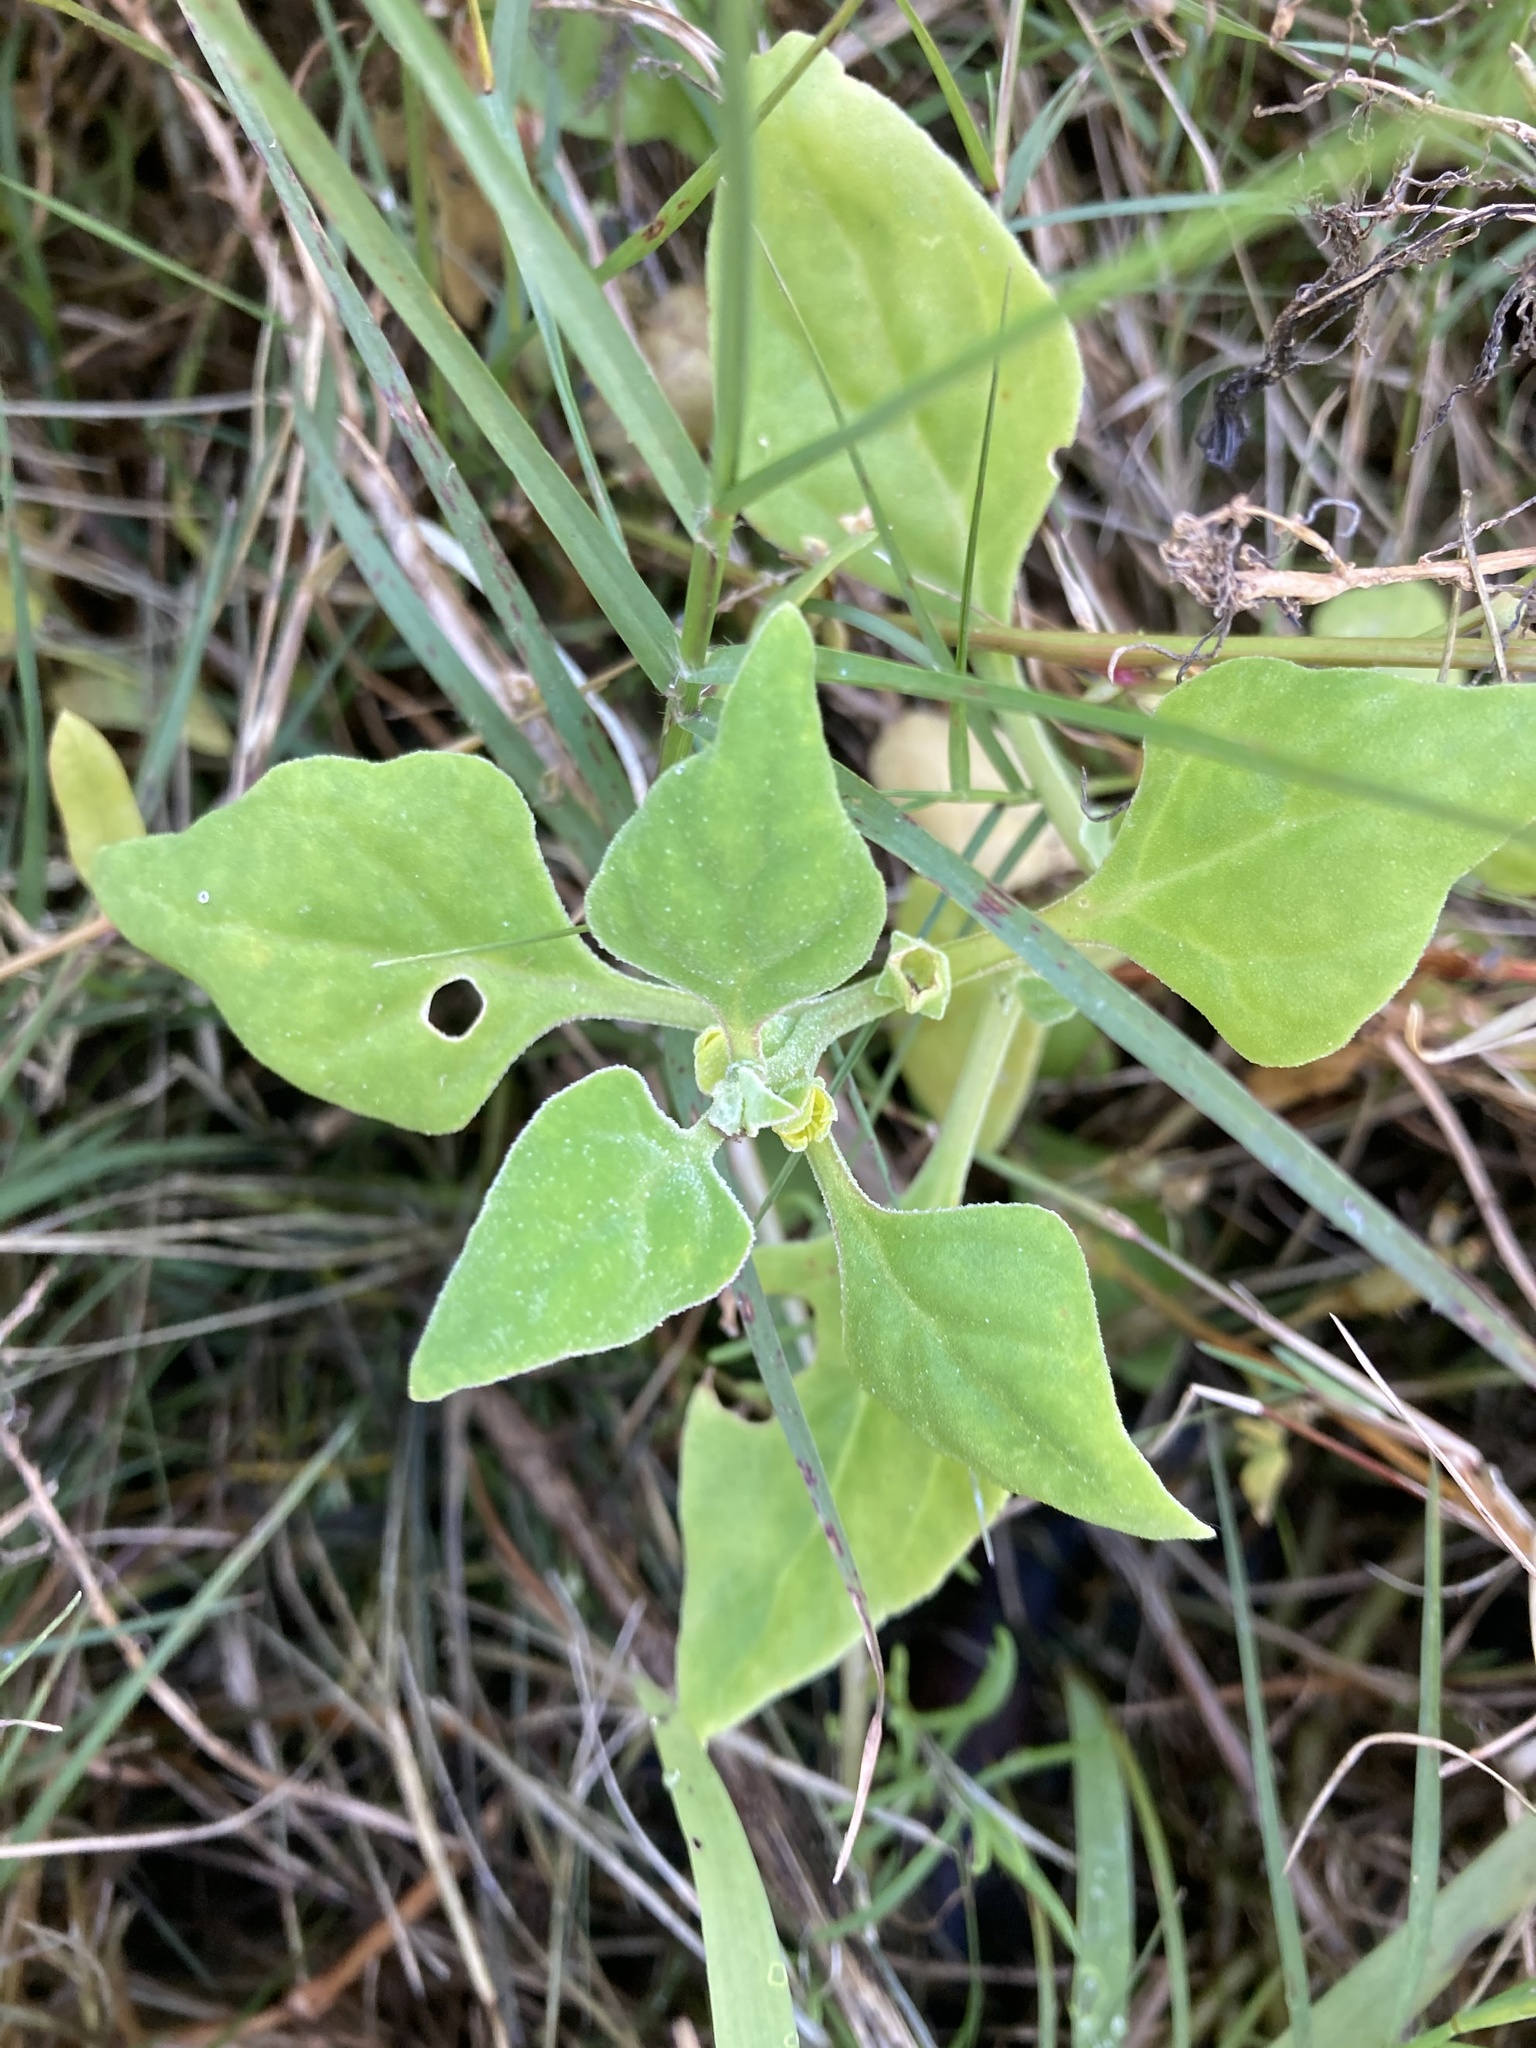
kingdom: Plantae
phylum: Tracheophyta
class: Magnoliopsida
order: Caryophyllales
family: Aizoaceae
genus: Tetragonia
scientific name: Tetragonia tetragonoides
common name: New zealand-spinach
